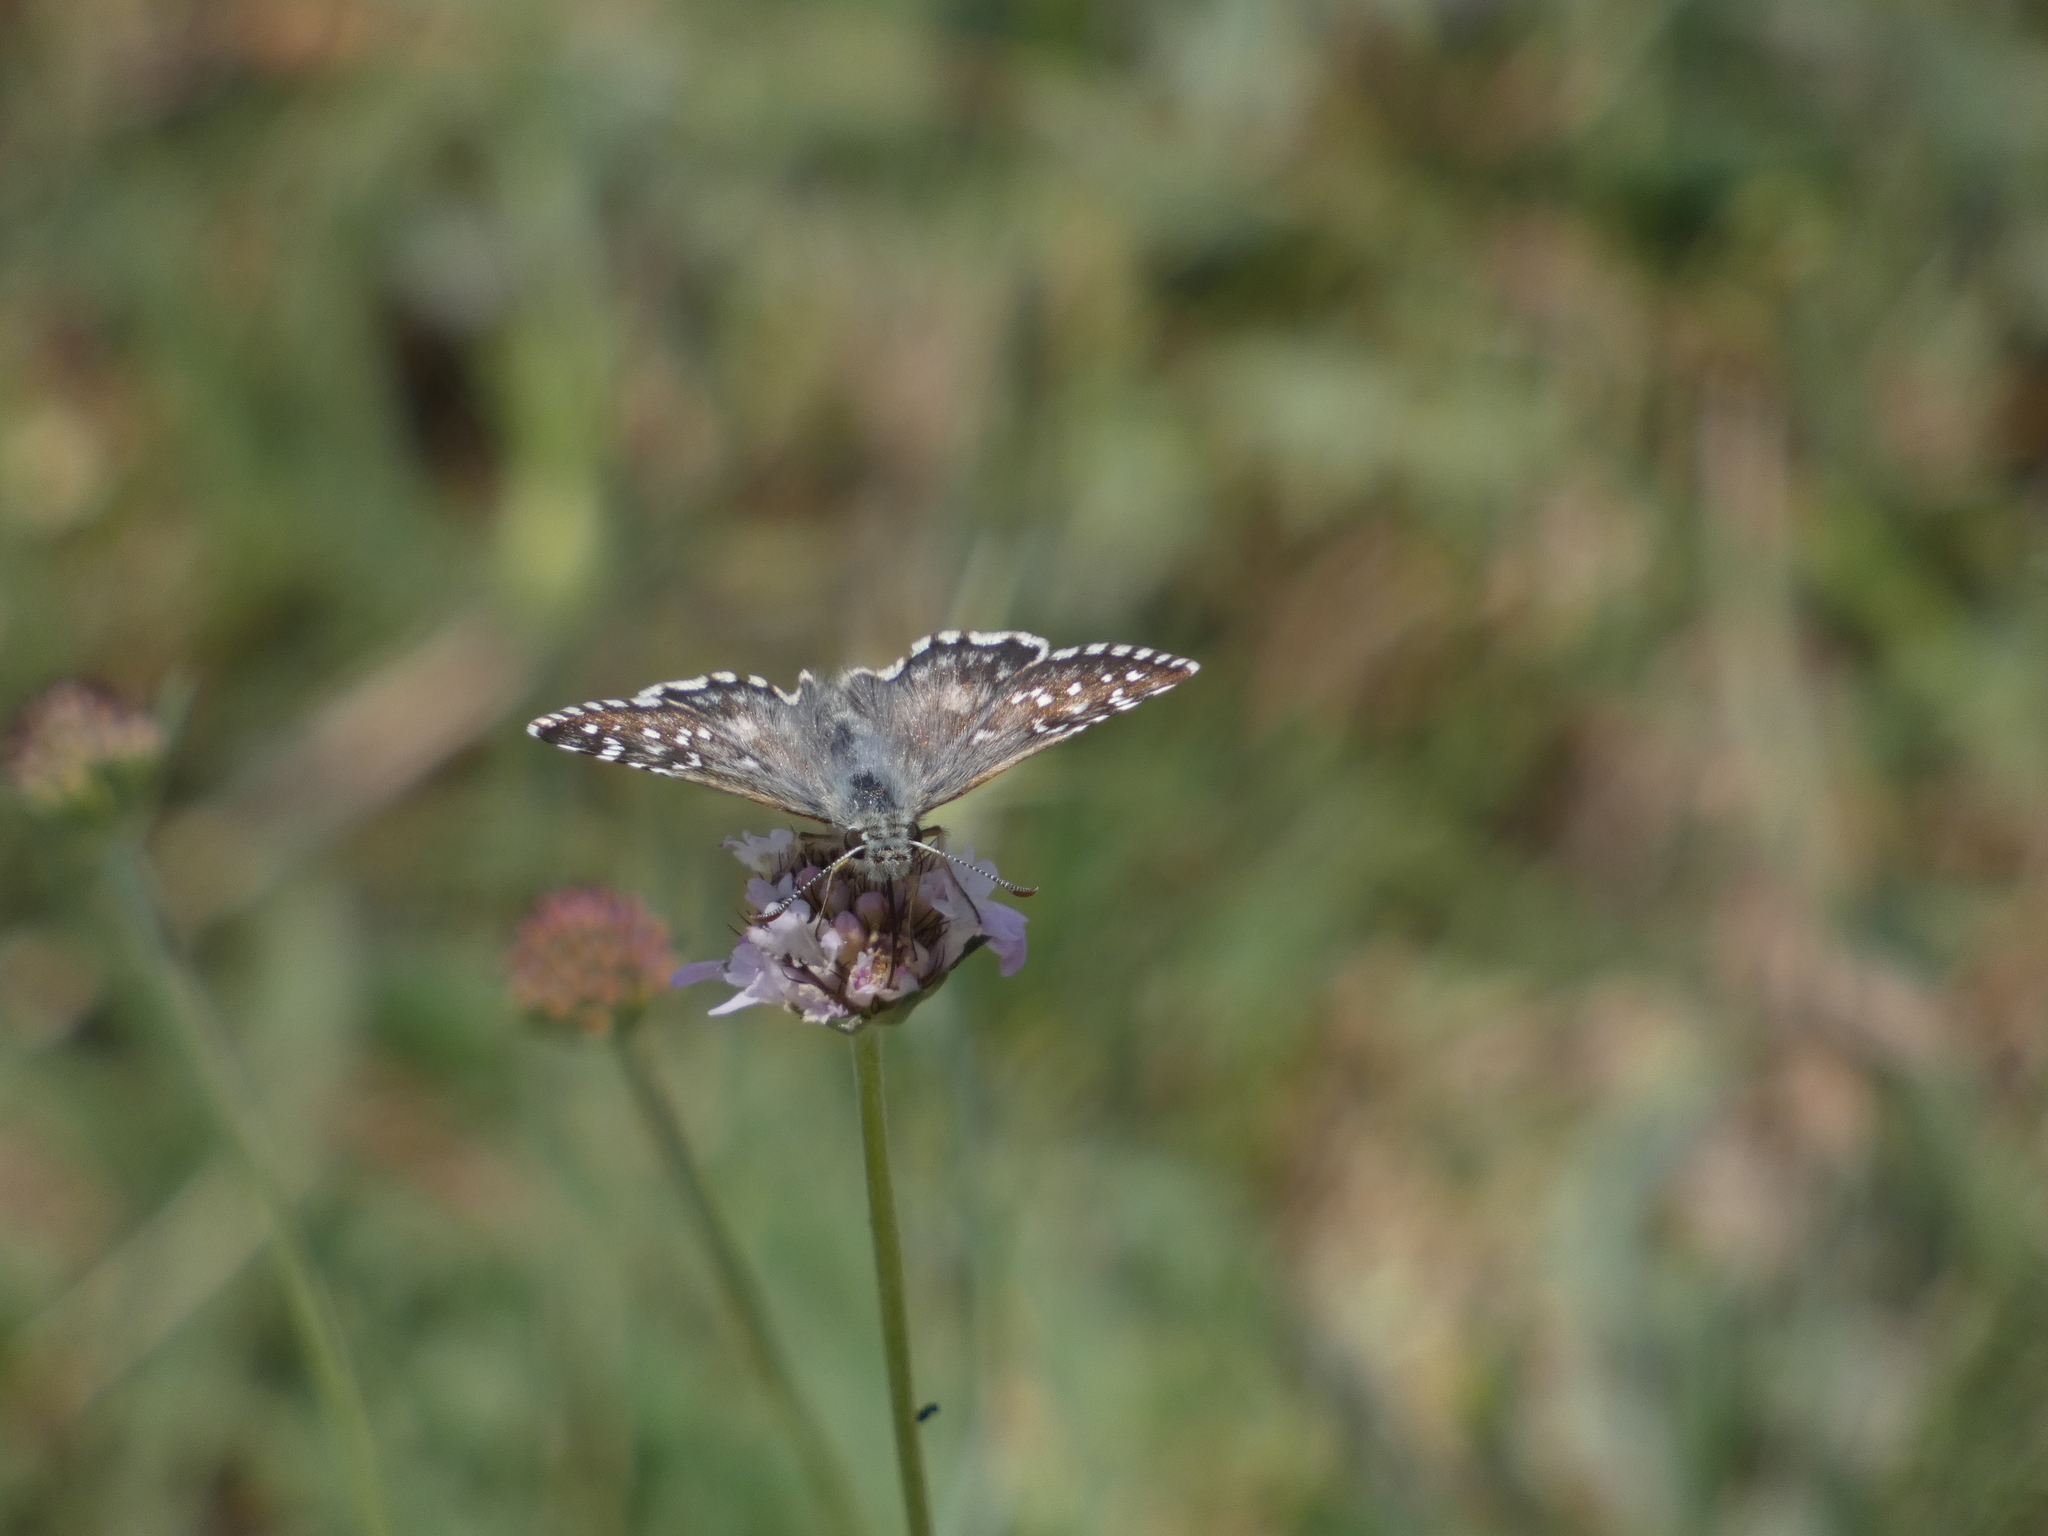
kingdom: Animalia
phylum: Arthropoda
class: Insecta
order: Lepidoptera
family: Hesperiidae
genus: Pyrgus
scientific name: Pyrgus onopordi
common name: Rosy grizzled skipper
